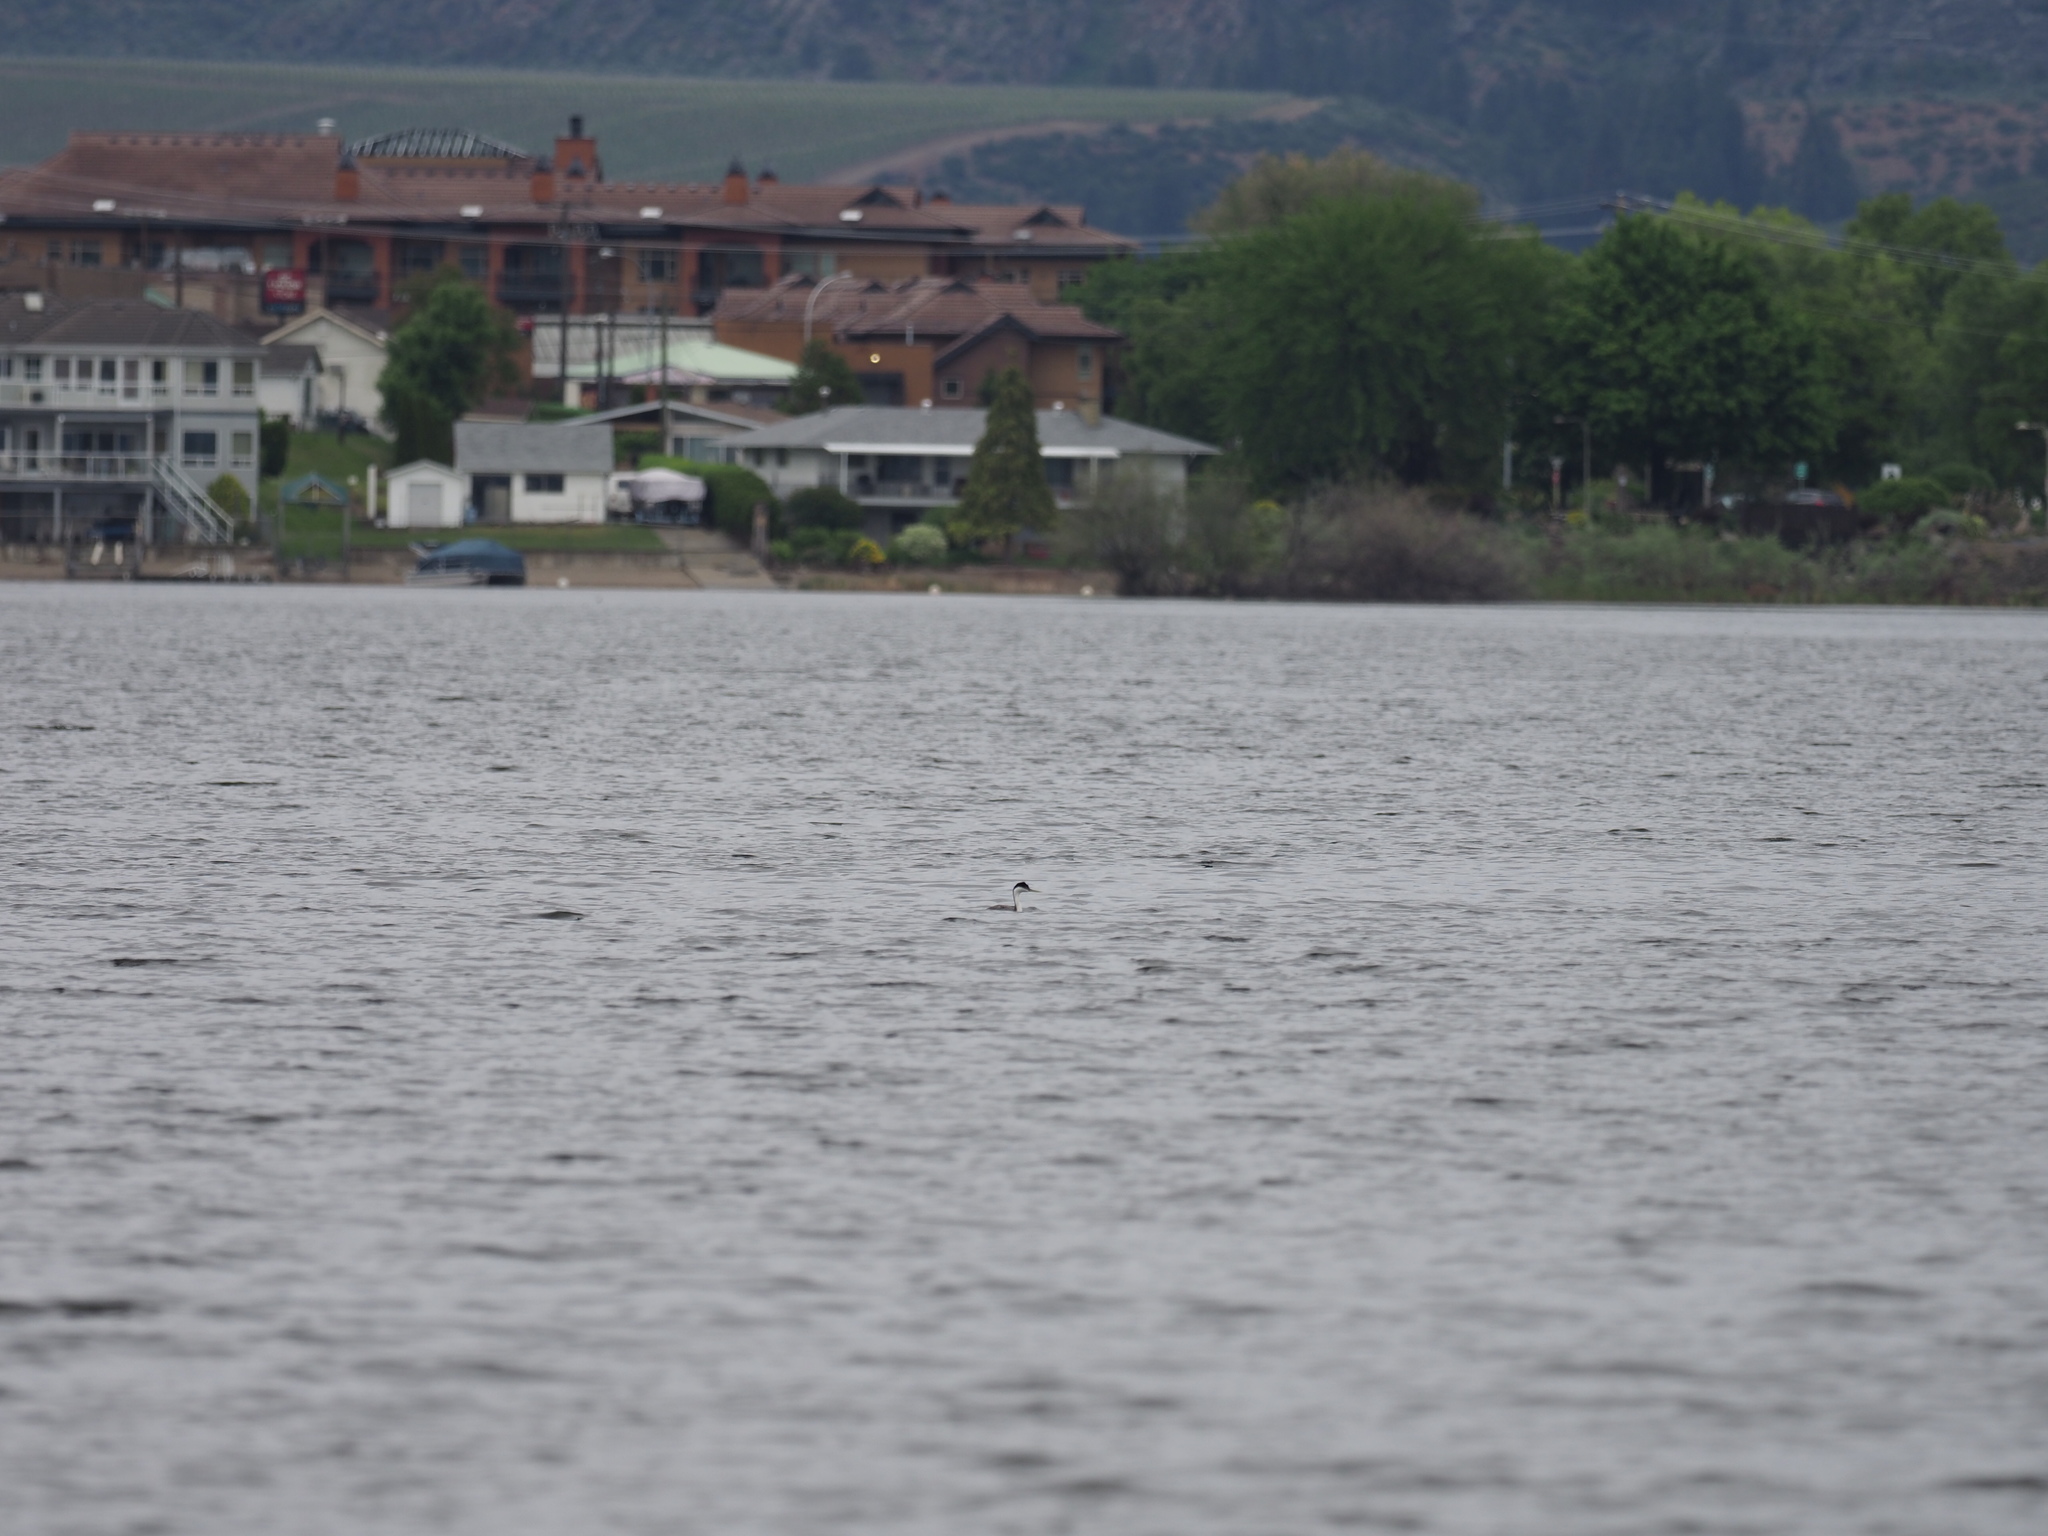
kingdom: Animalia
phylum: Chordata
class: Aves
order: Podicipediformes
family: Podicipedidae
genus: Aechmophorus
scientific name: Aechmophorus occidentalis
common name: Western grebe
